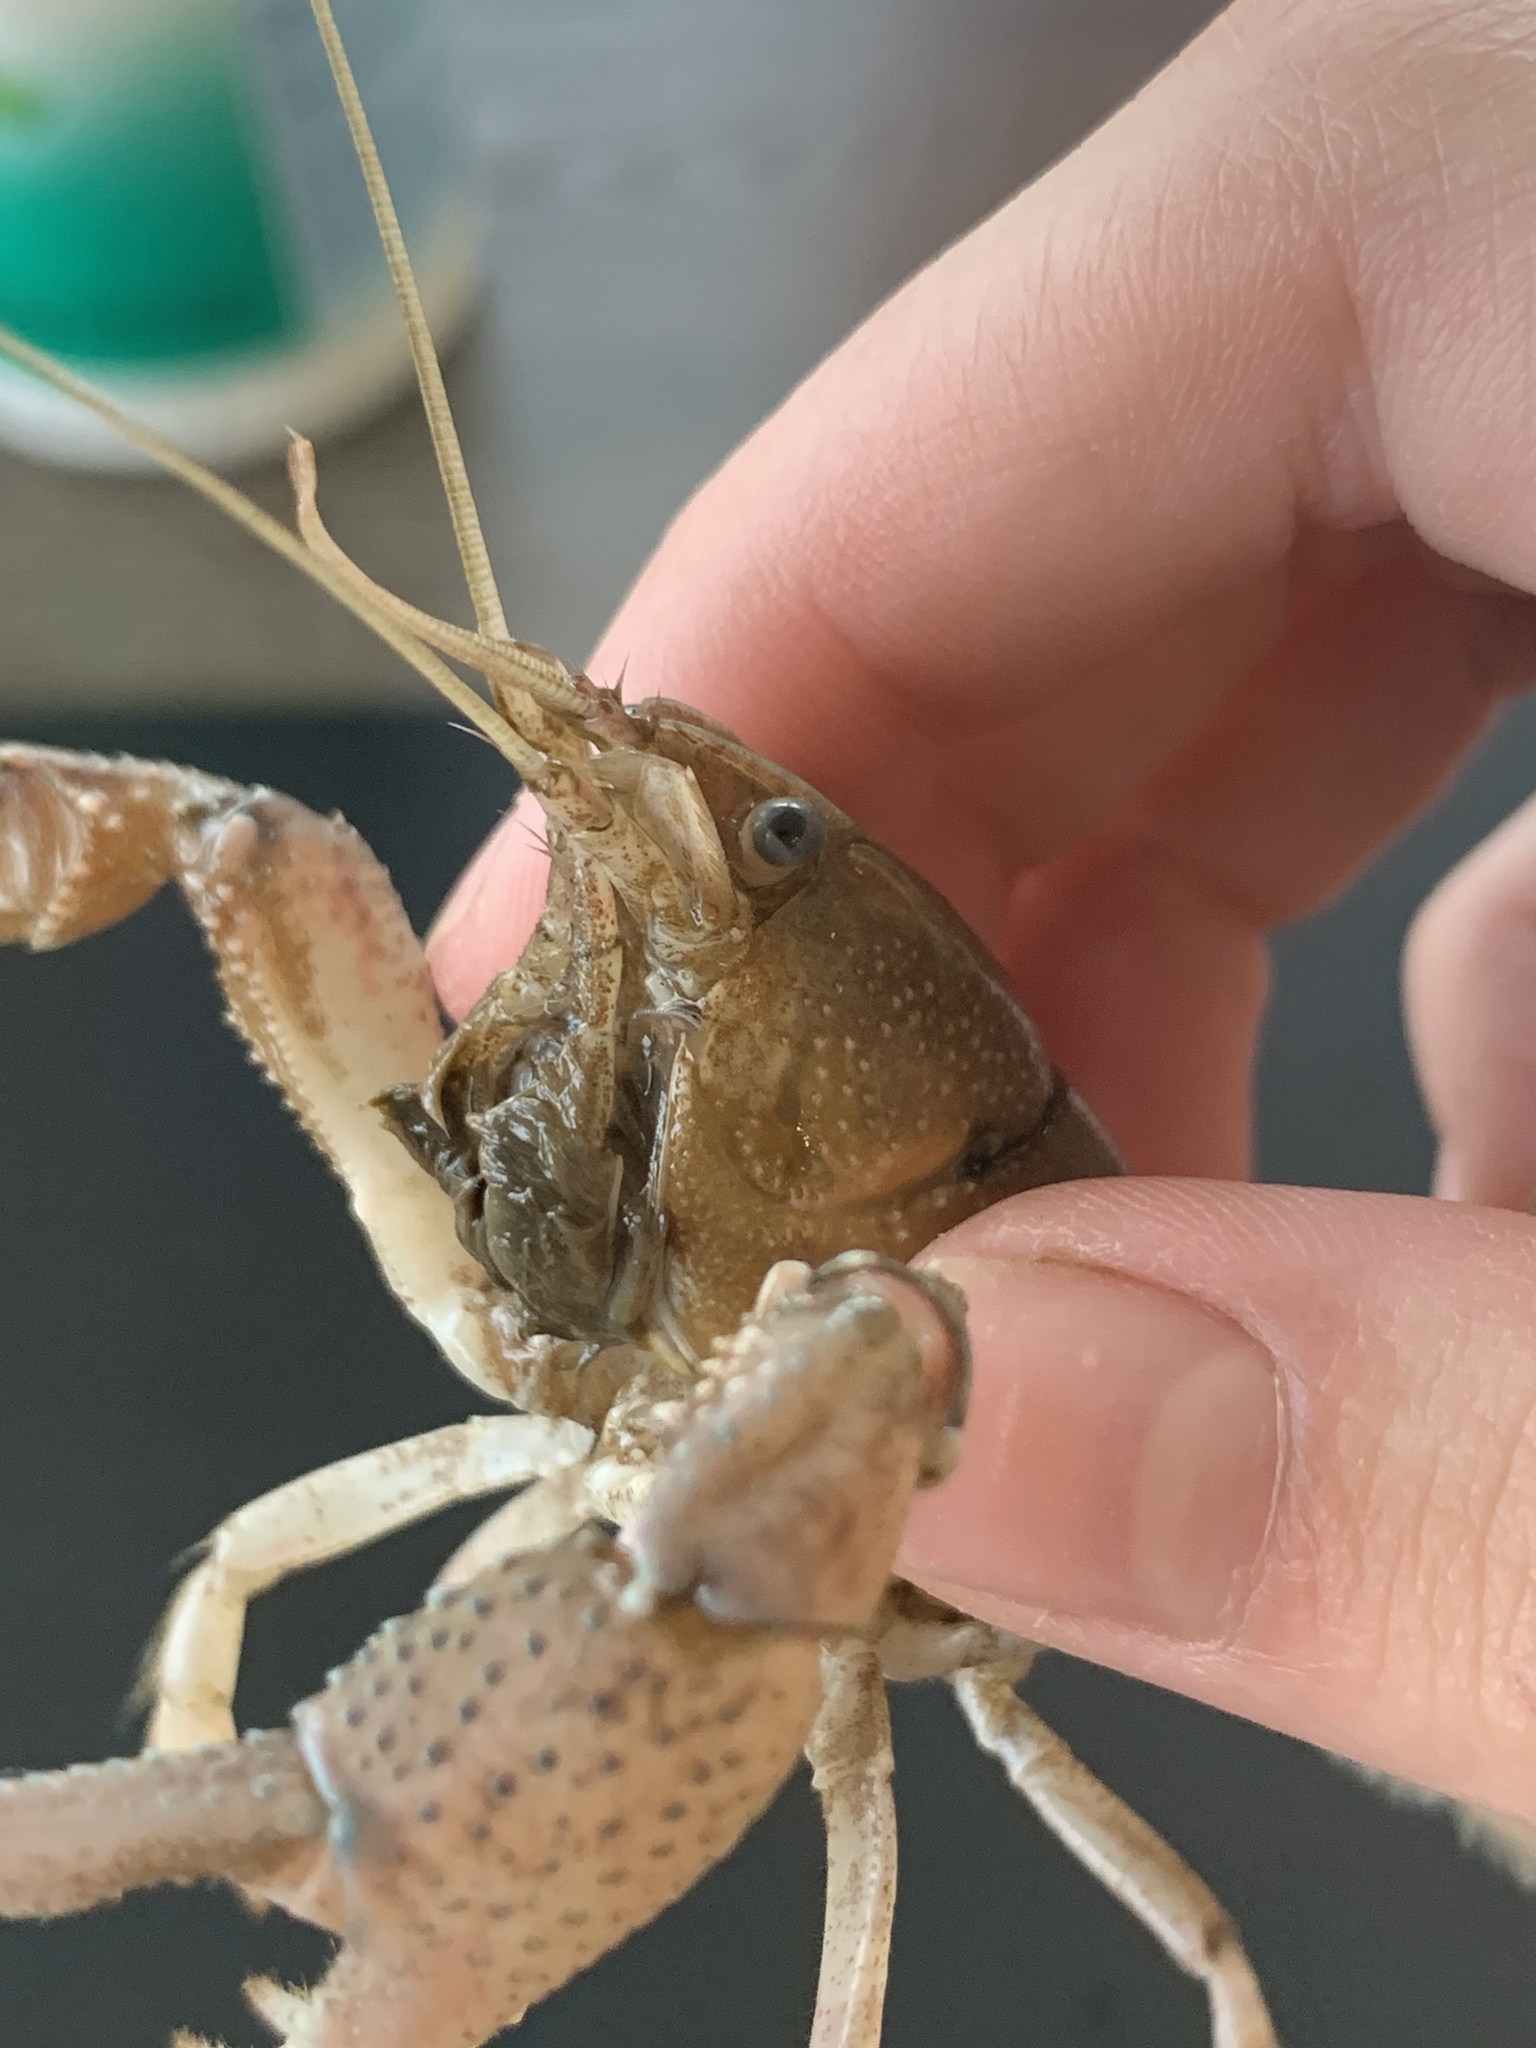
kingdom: Animalia
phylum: Arthropoda
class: Malacostraca
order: Decapoda
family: Cambaridae
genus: Procambarus
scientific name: Procambarus curdi
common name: Red river burrowing crayfish
